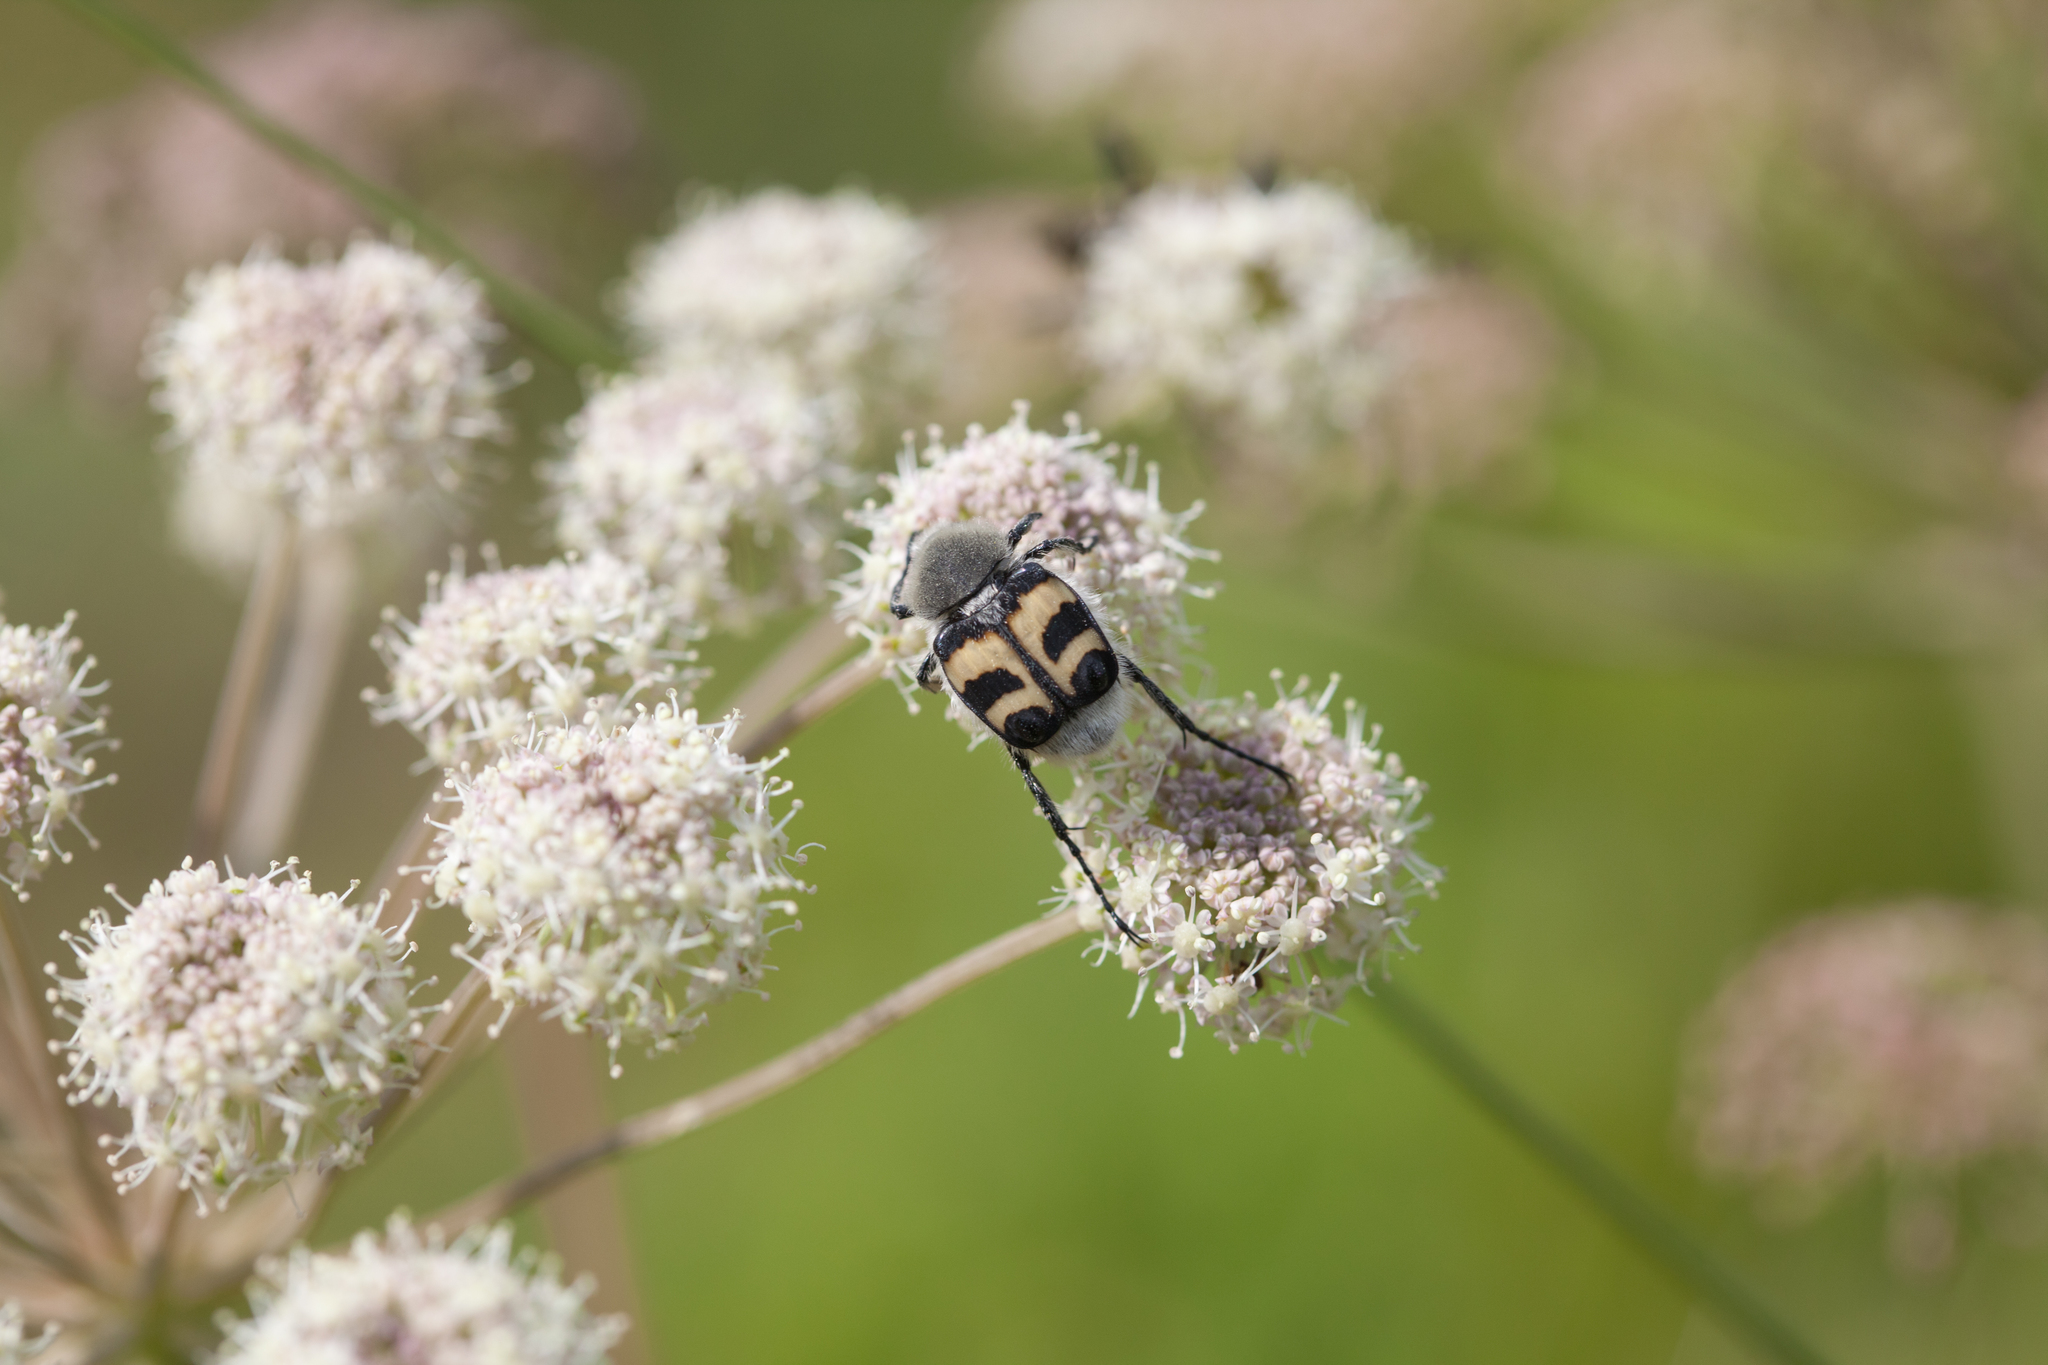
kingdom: Animalia
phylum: Arthropoda
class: Insecta
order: Coleoptera
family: Scarabaeidae
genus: Trichius
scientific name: Trichius fasciatus
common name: Bee beetle
